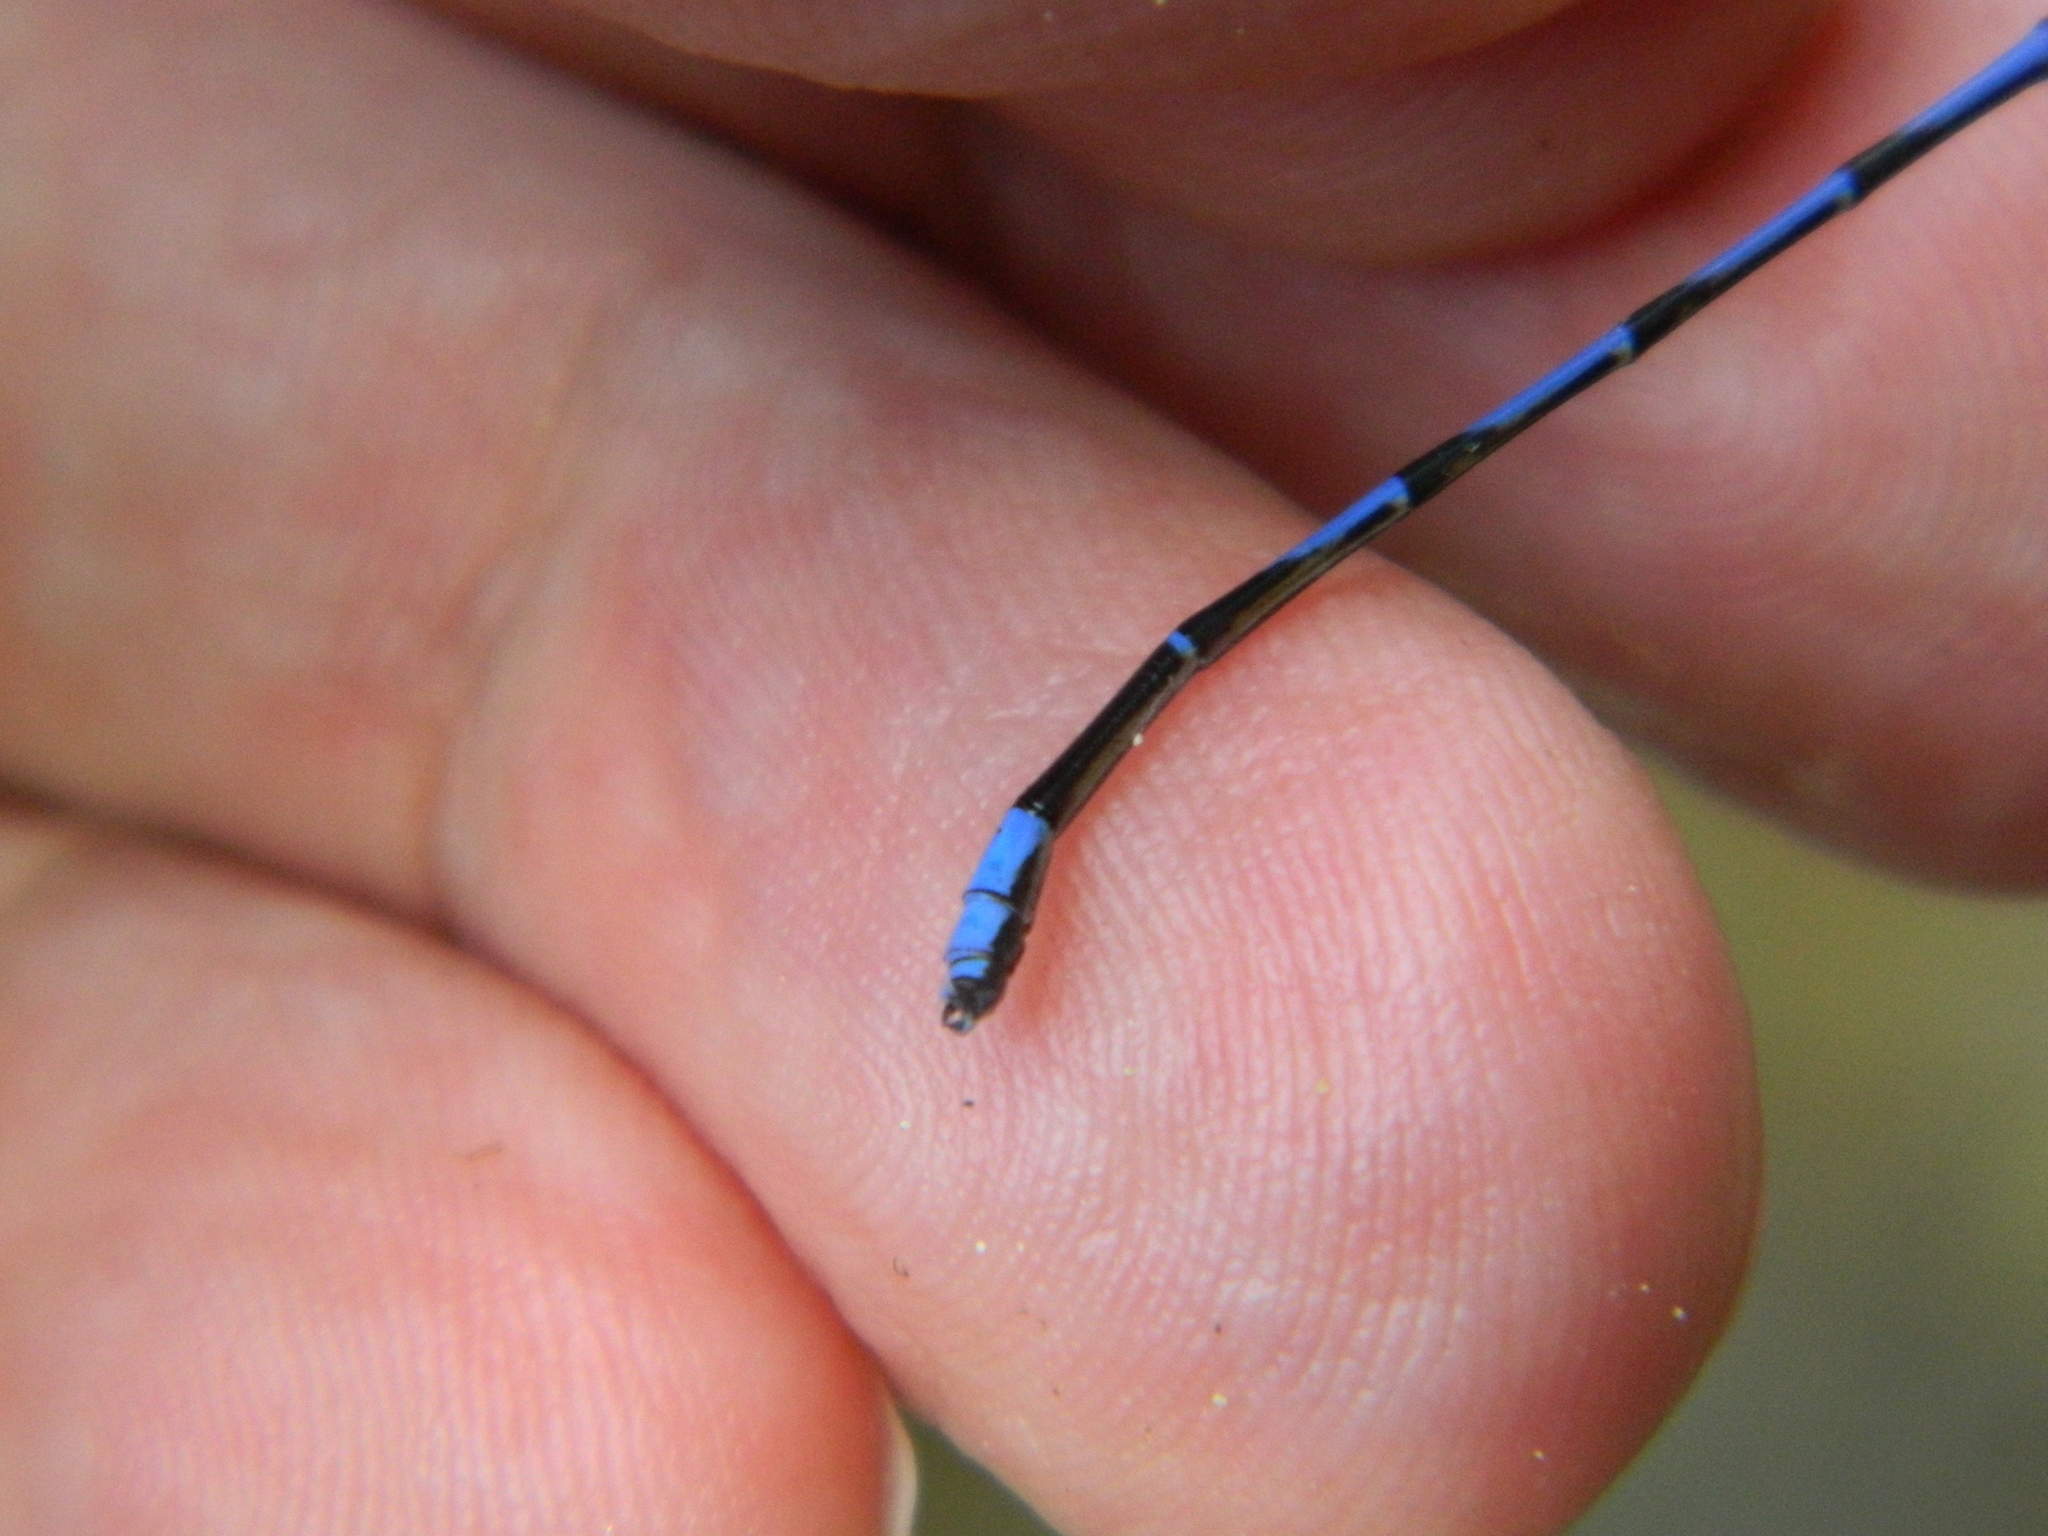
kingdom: Animalia
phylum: Arthropoda
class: Insecta
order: Odonata
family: Coenagrionidae
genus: Argia
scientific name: Argia oenea
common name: Fiery-eyed dancer
